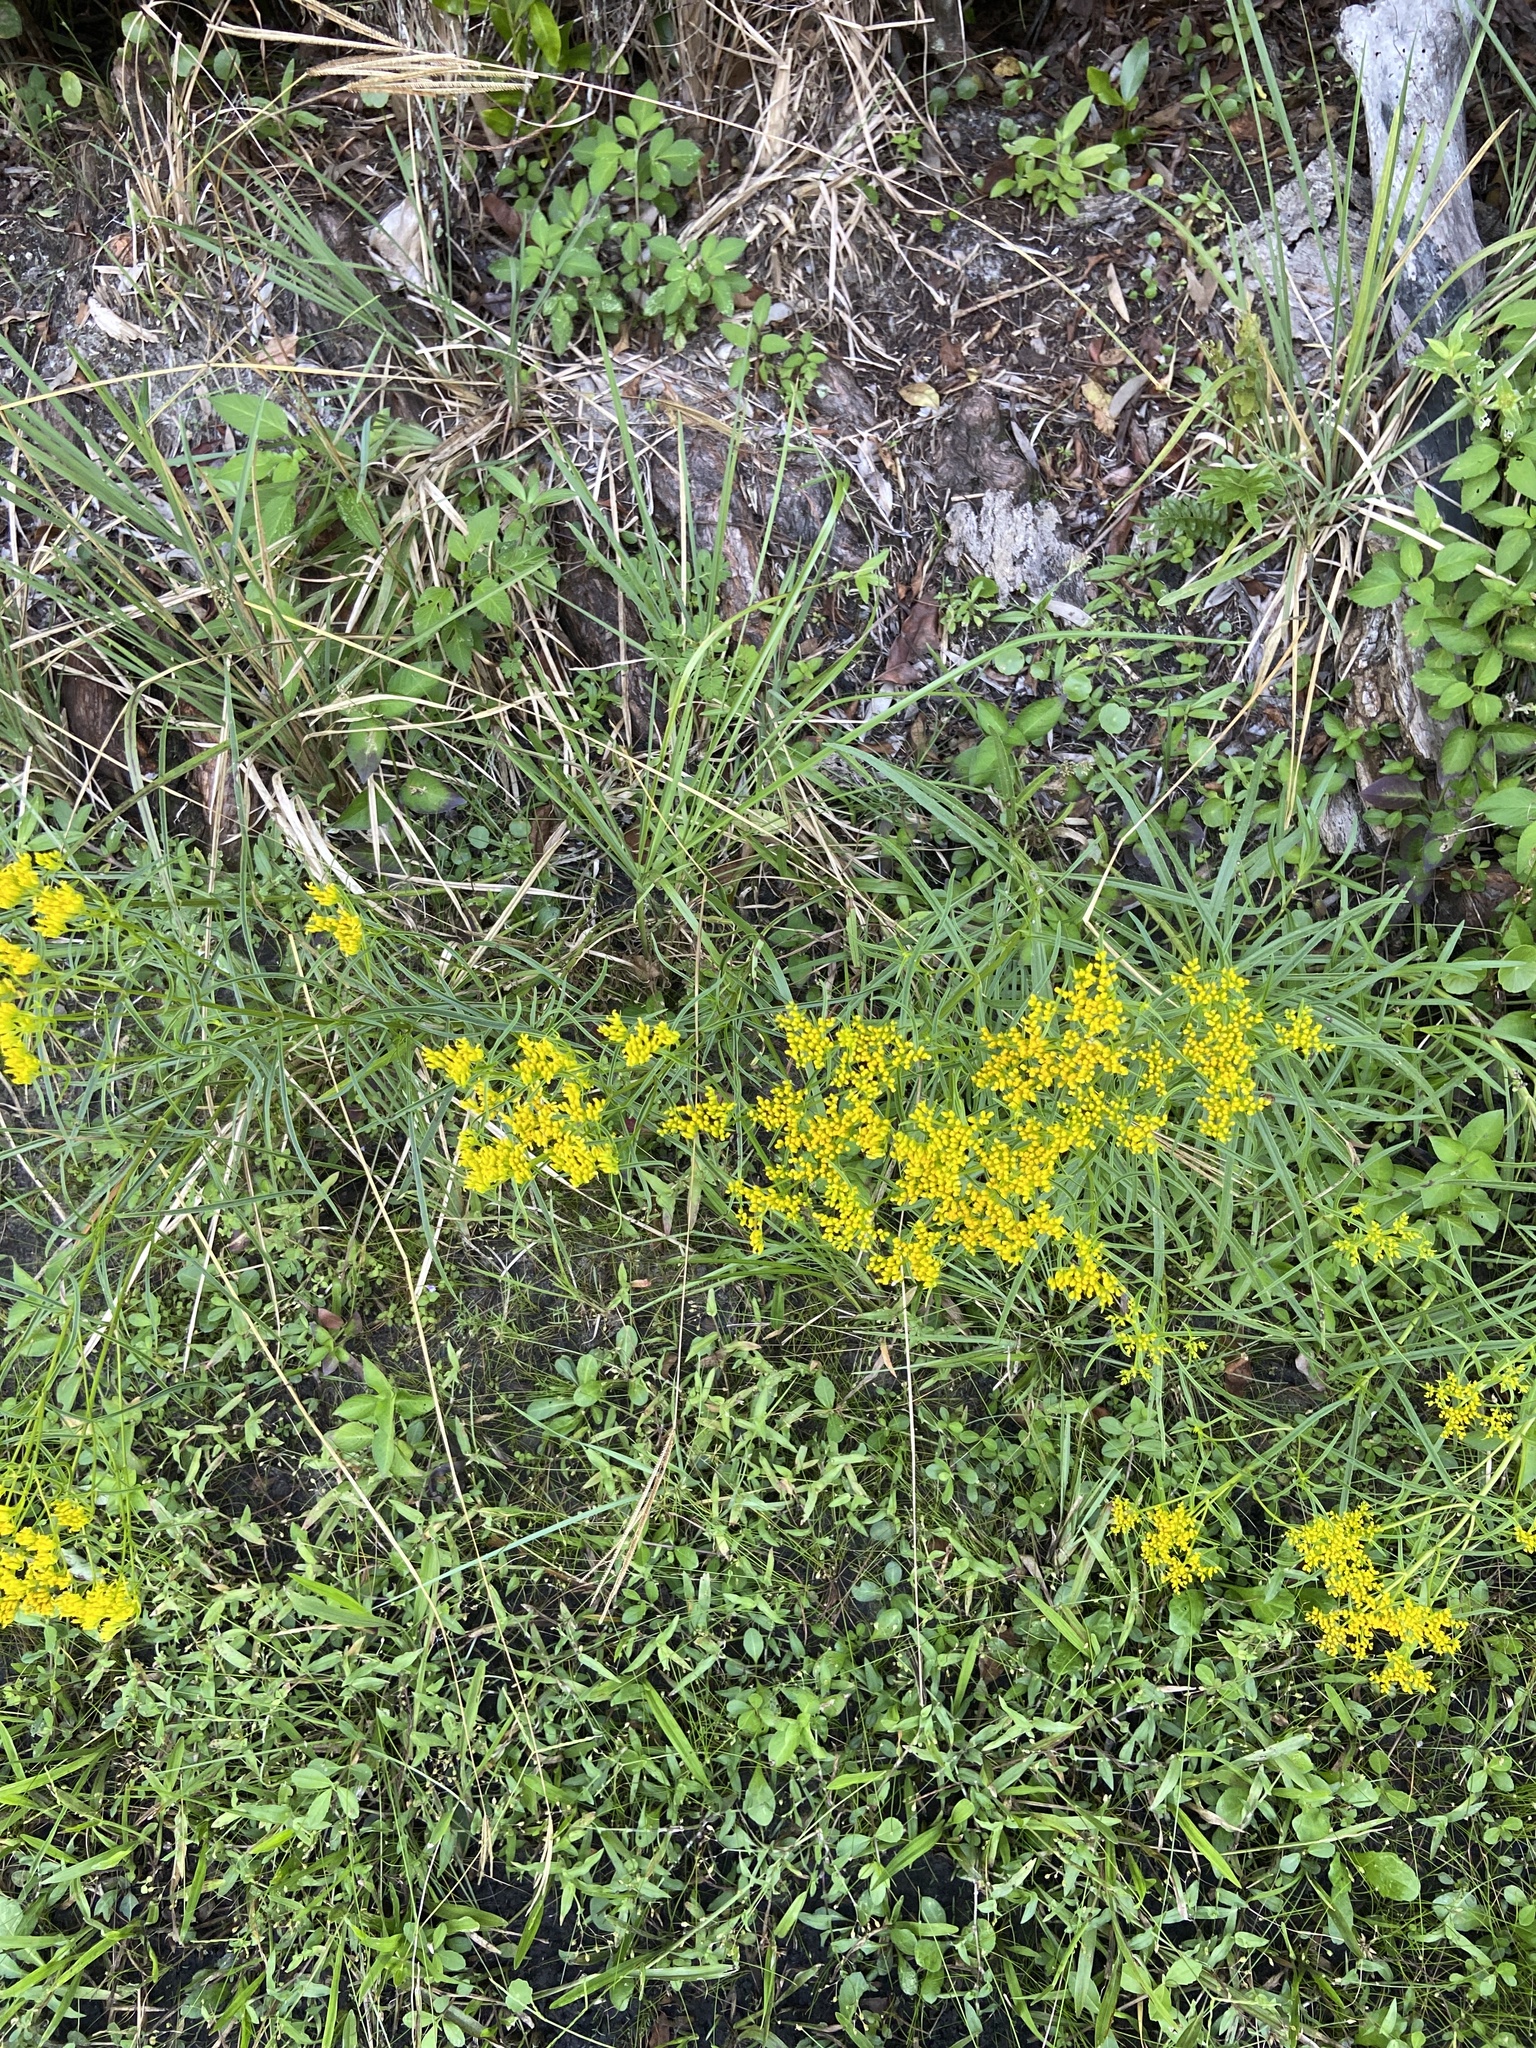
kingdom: Plantae
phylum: Tracheophyta
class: Magnoliopsida
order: Asterales
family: Asteraceae
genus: Flaveria
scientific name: Flaveria linearis
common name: Yellowtop
